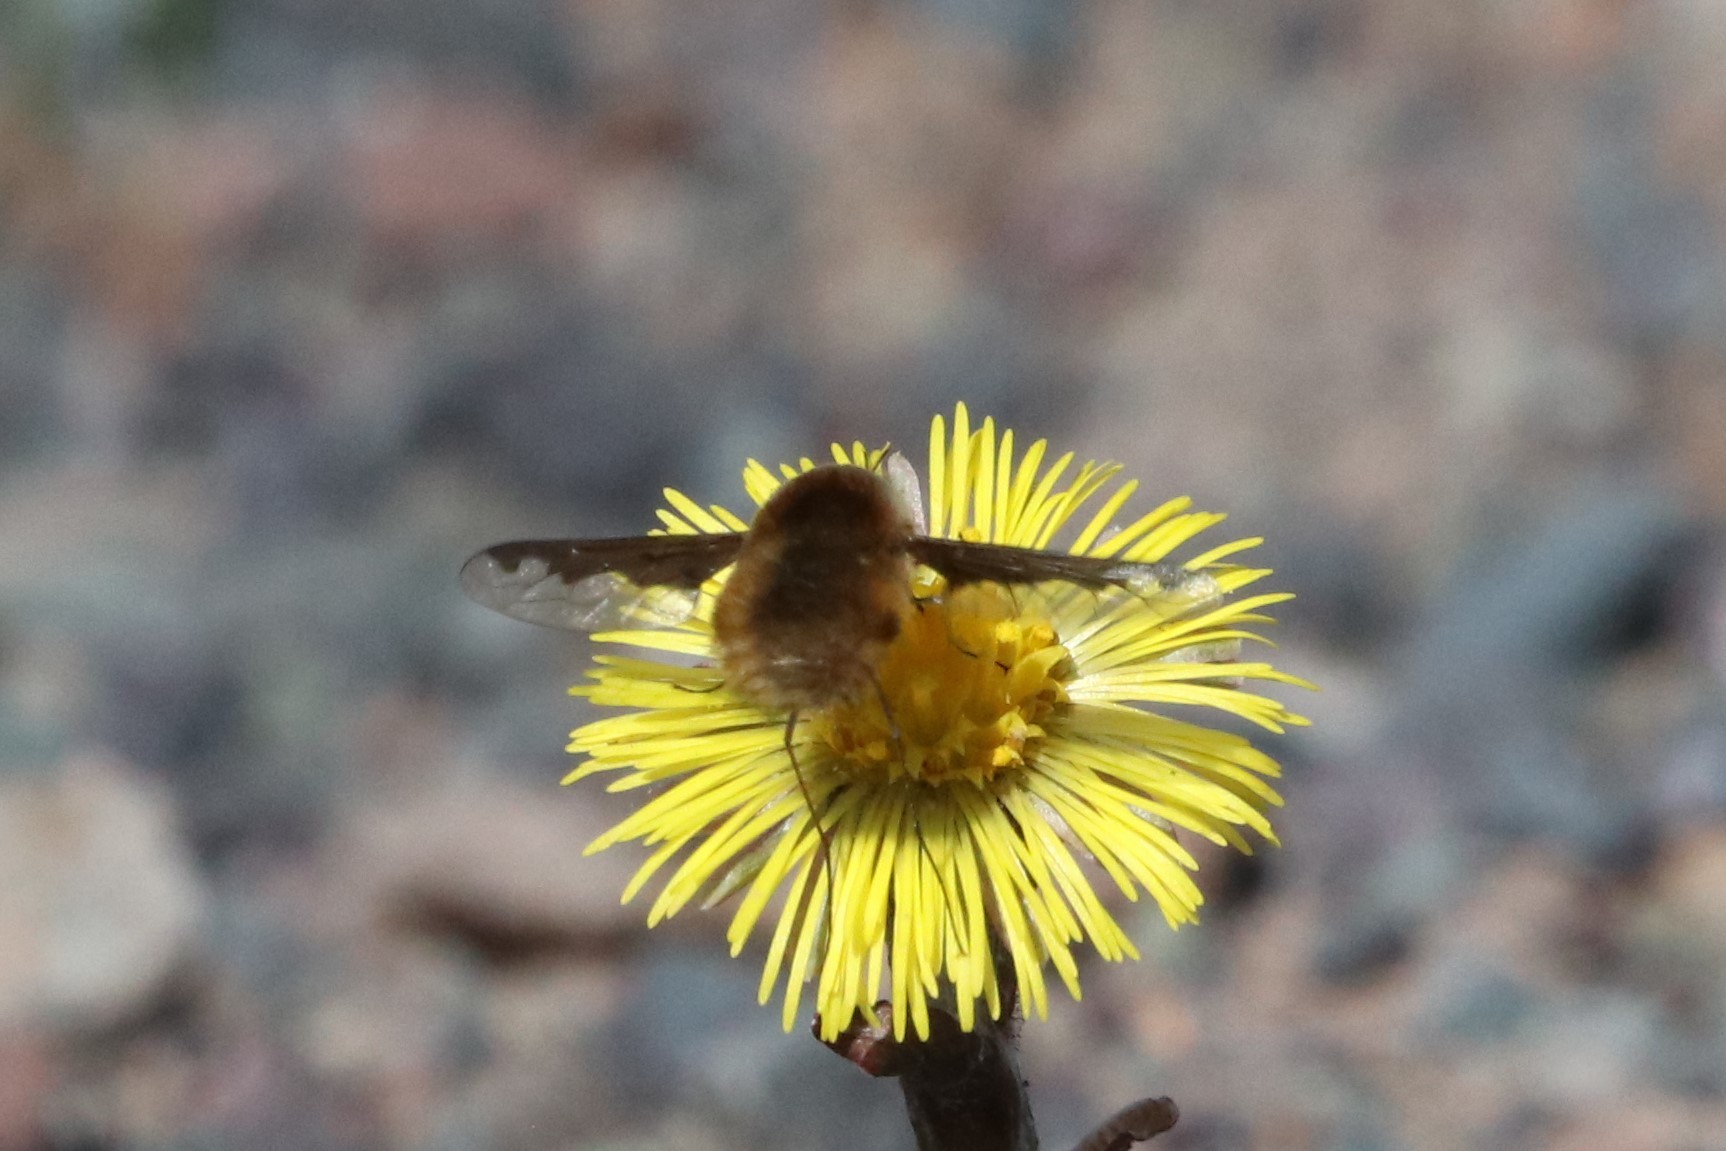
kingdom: Animalia
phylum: Arthropoda
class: Insecta
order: Diptera
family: Bombyliidae
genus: Bombylius
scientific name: Bombylius major
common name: Bee fly
